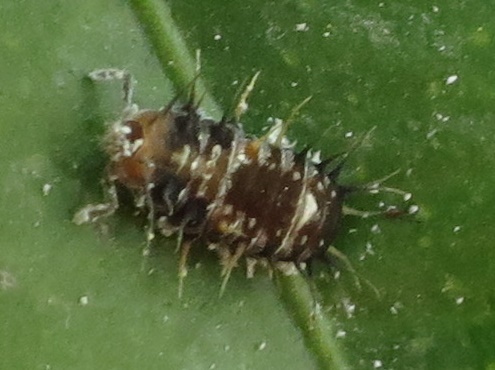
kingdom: Animalia
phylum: Arthropoda
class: Insecta
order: Coleoptera
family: Coccinellidae
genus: Scymnodes
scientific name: Scymnodes lividigaster
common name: Yellowshouldered lady beetle
